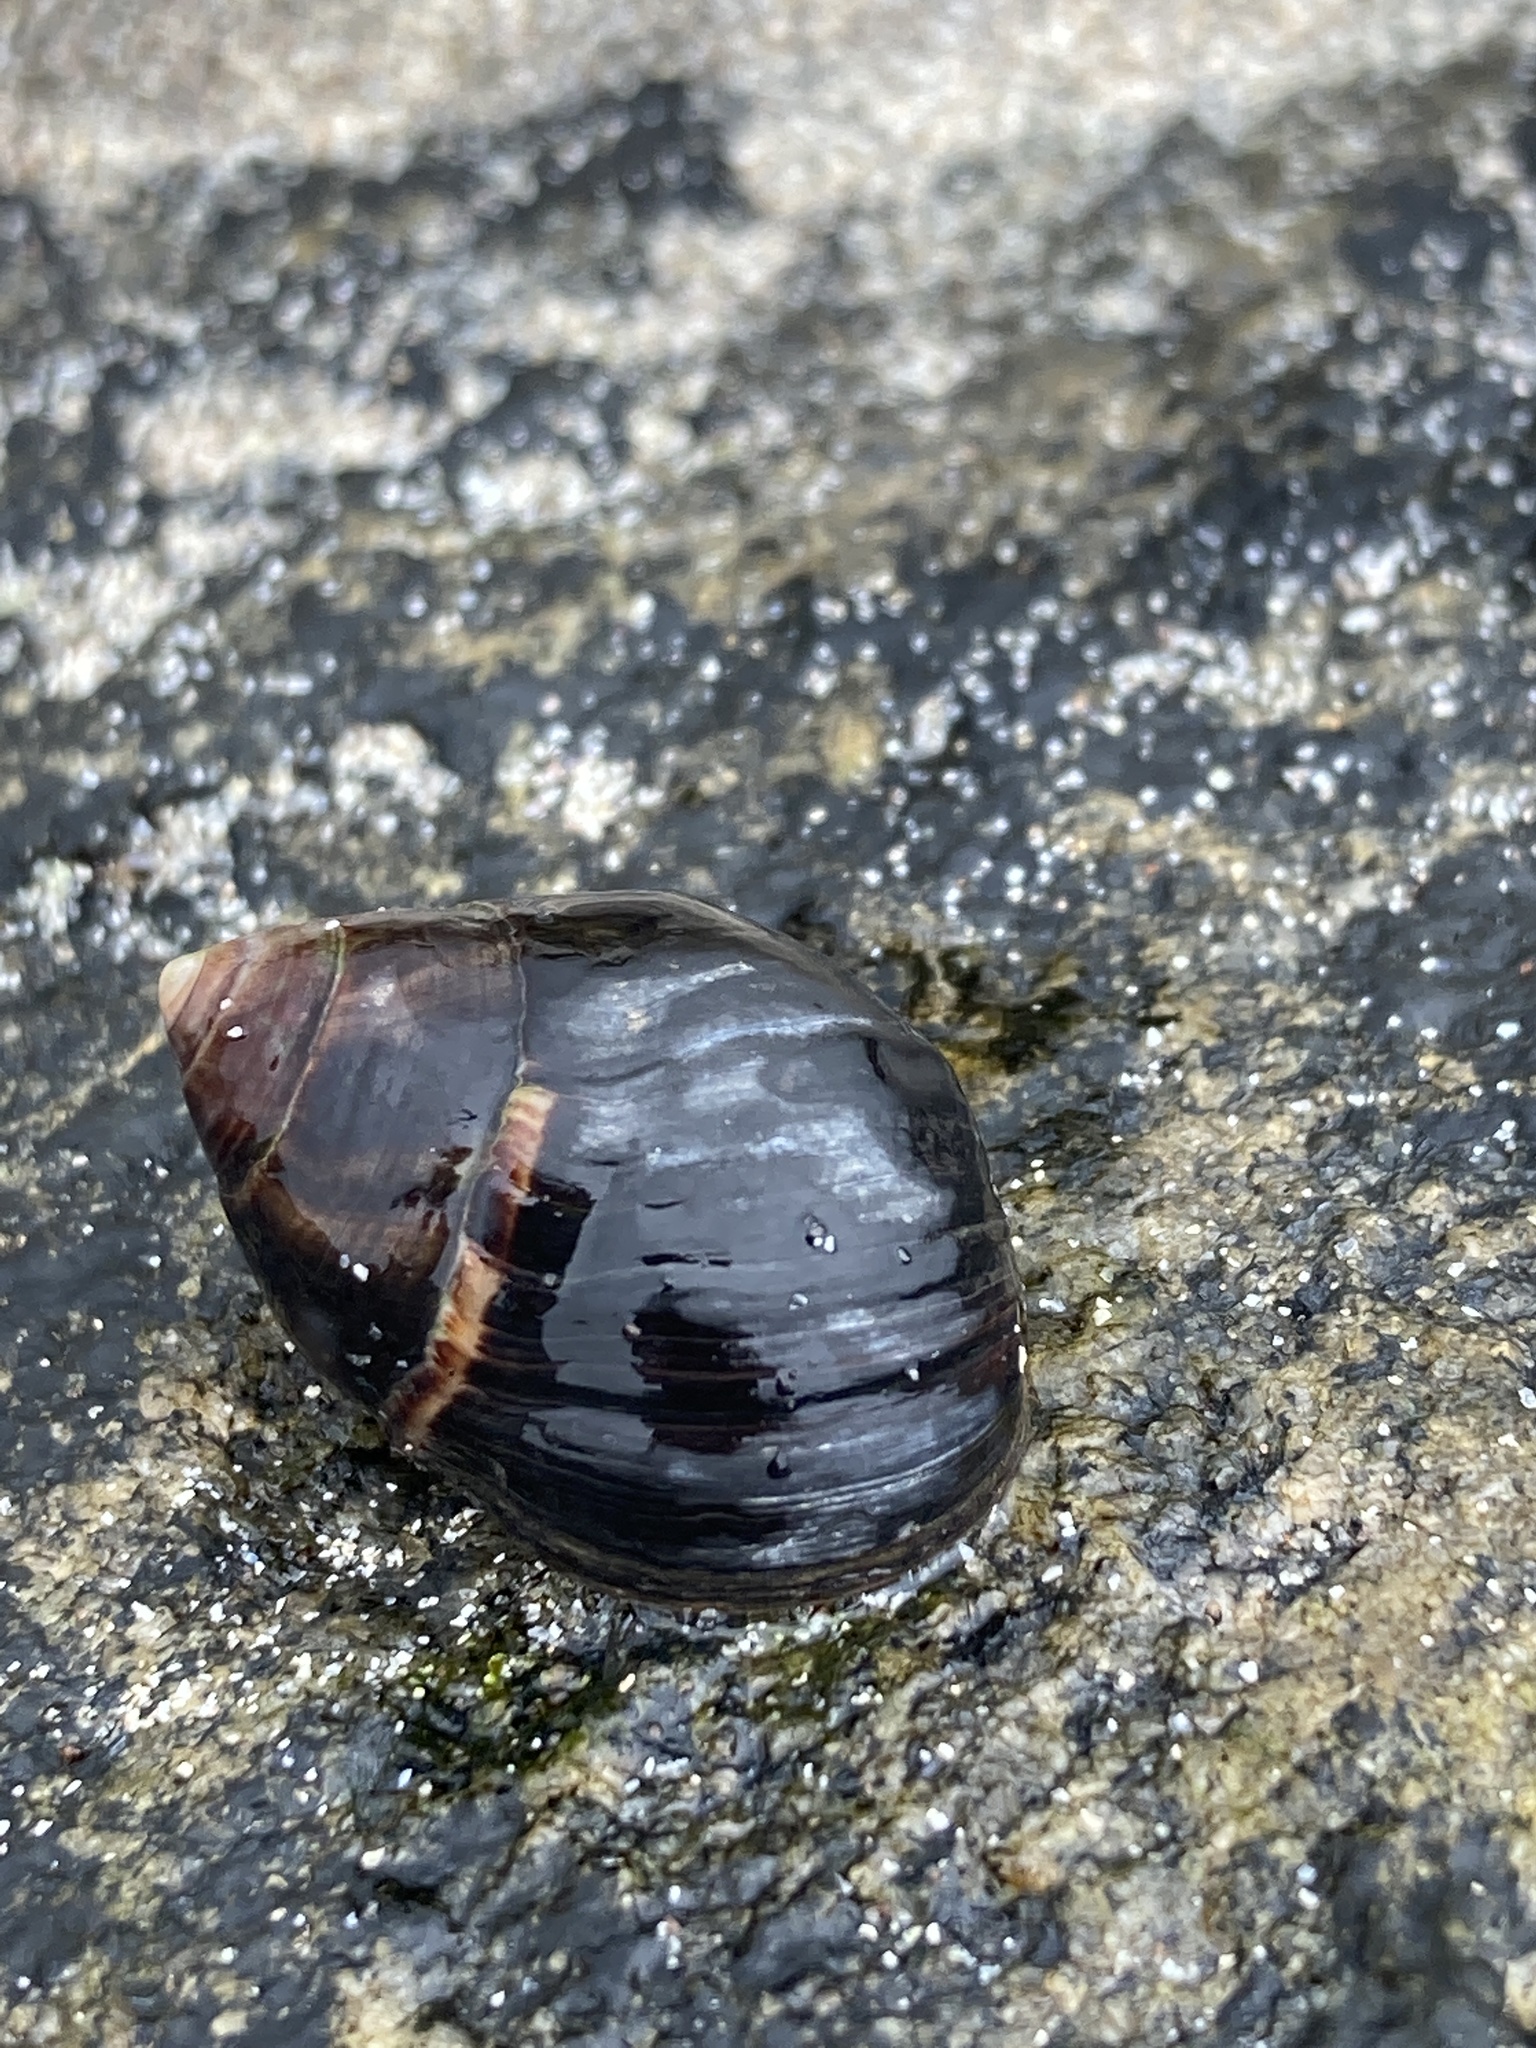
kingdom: Animalia
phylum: Mollusca
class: Gastropoda
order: Littorinimorpha
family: Littorinidae
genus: Littorina
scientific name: Littorina littorea
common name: Common periwinkle
